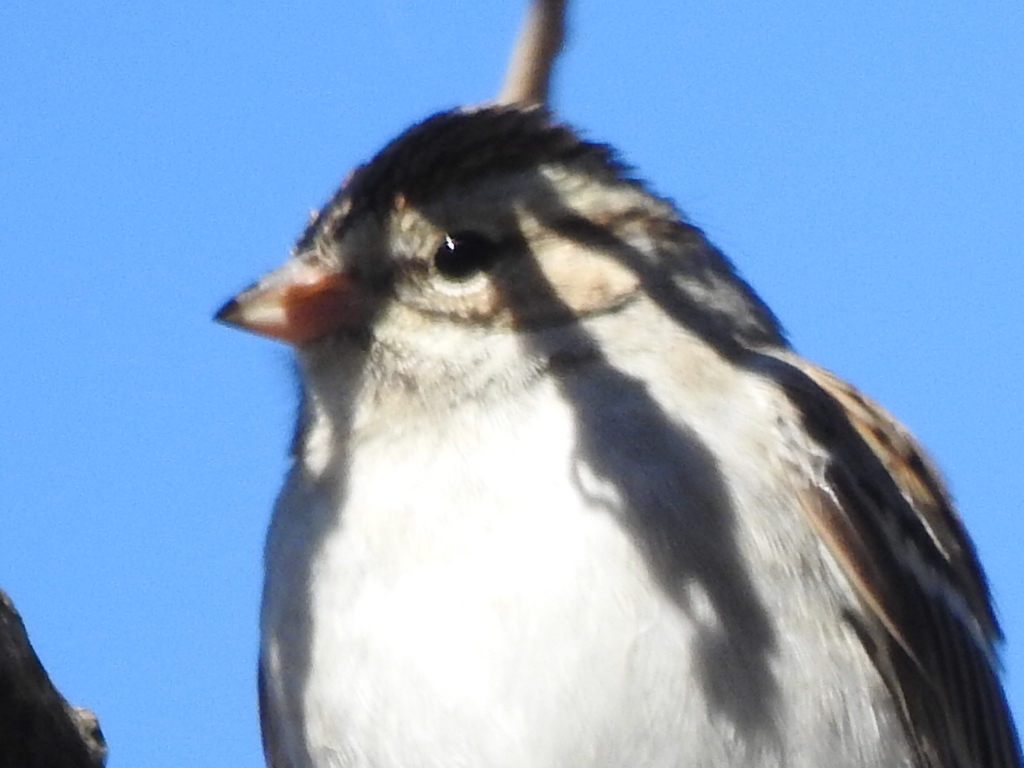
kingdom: Animalia
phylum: Chordata
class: Aves
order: Passeriformes
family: Passerellidae
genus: Spizella
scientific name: Spizella passerina
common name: Chipping sparrow
